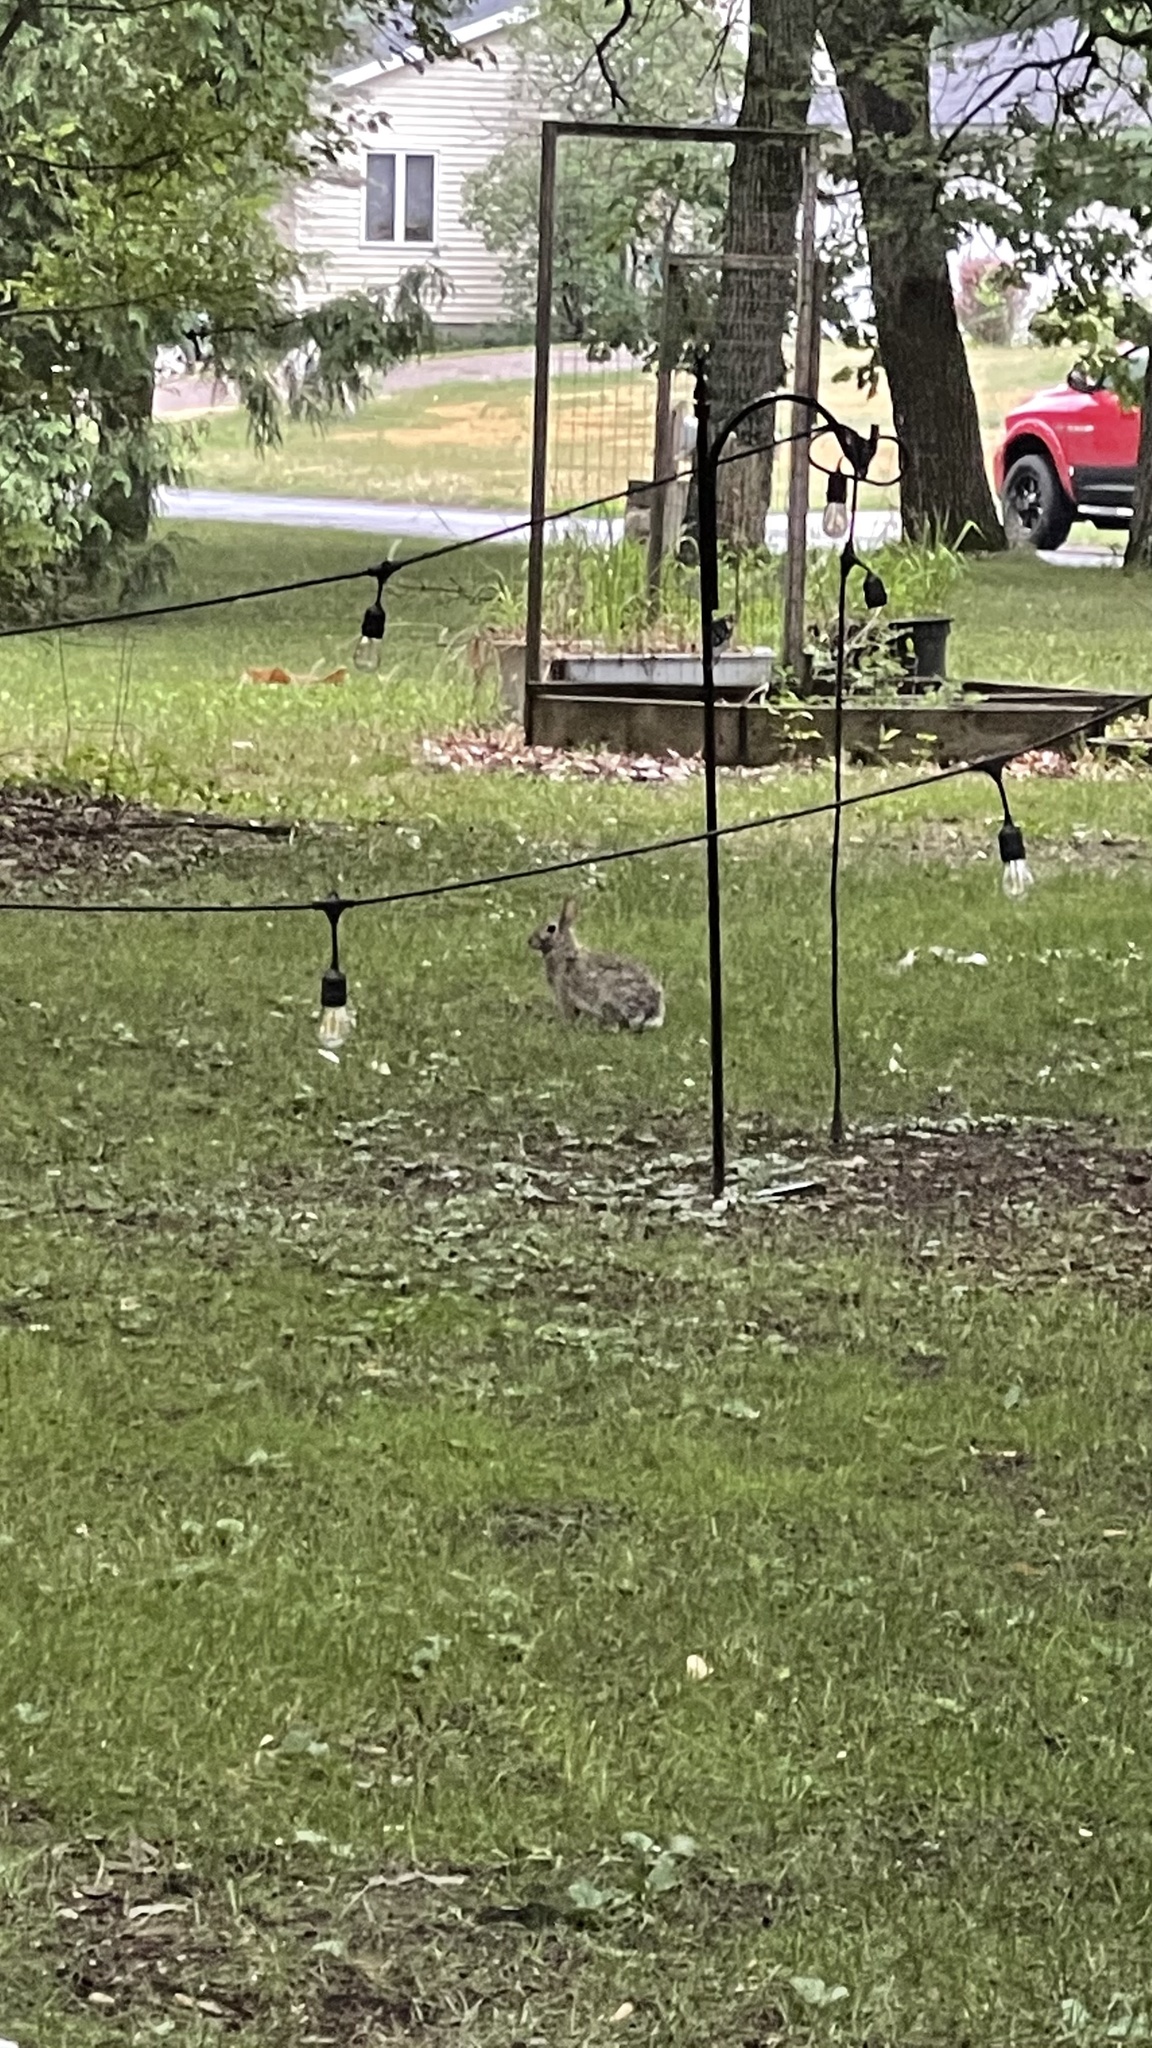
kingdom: Animalia
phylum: Chordata
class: Mammalia
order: Lagomorpha
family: Leporidae
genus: Sylvilagus
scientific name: Sylvilagus floridanus
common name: Eastern cottontail
